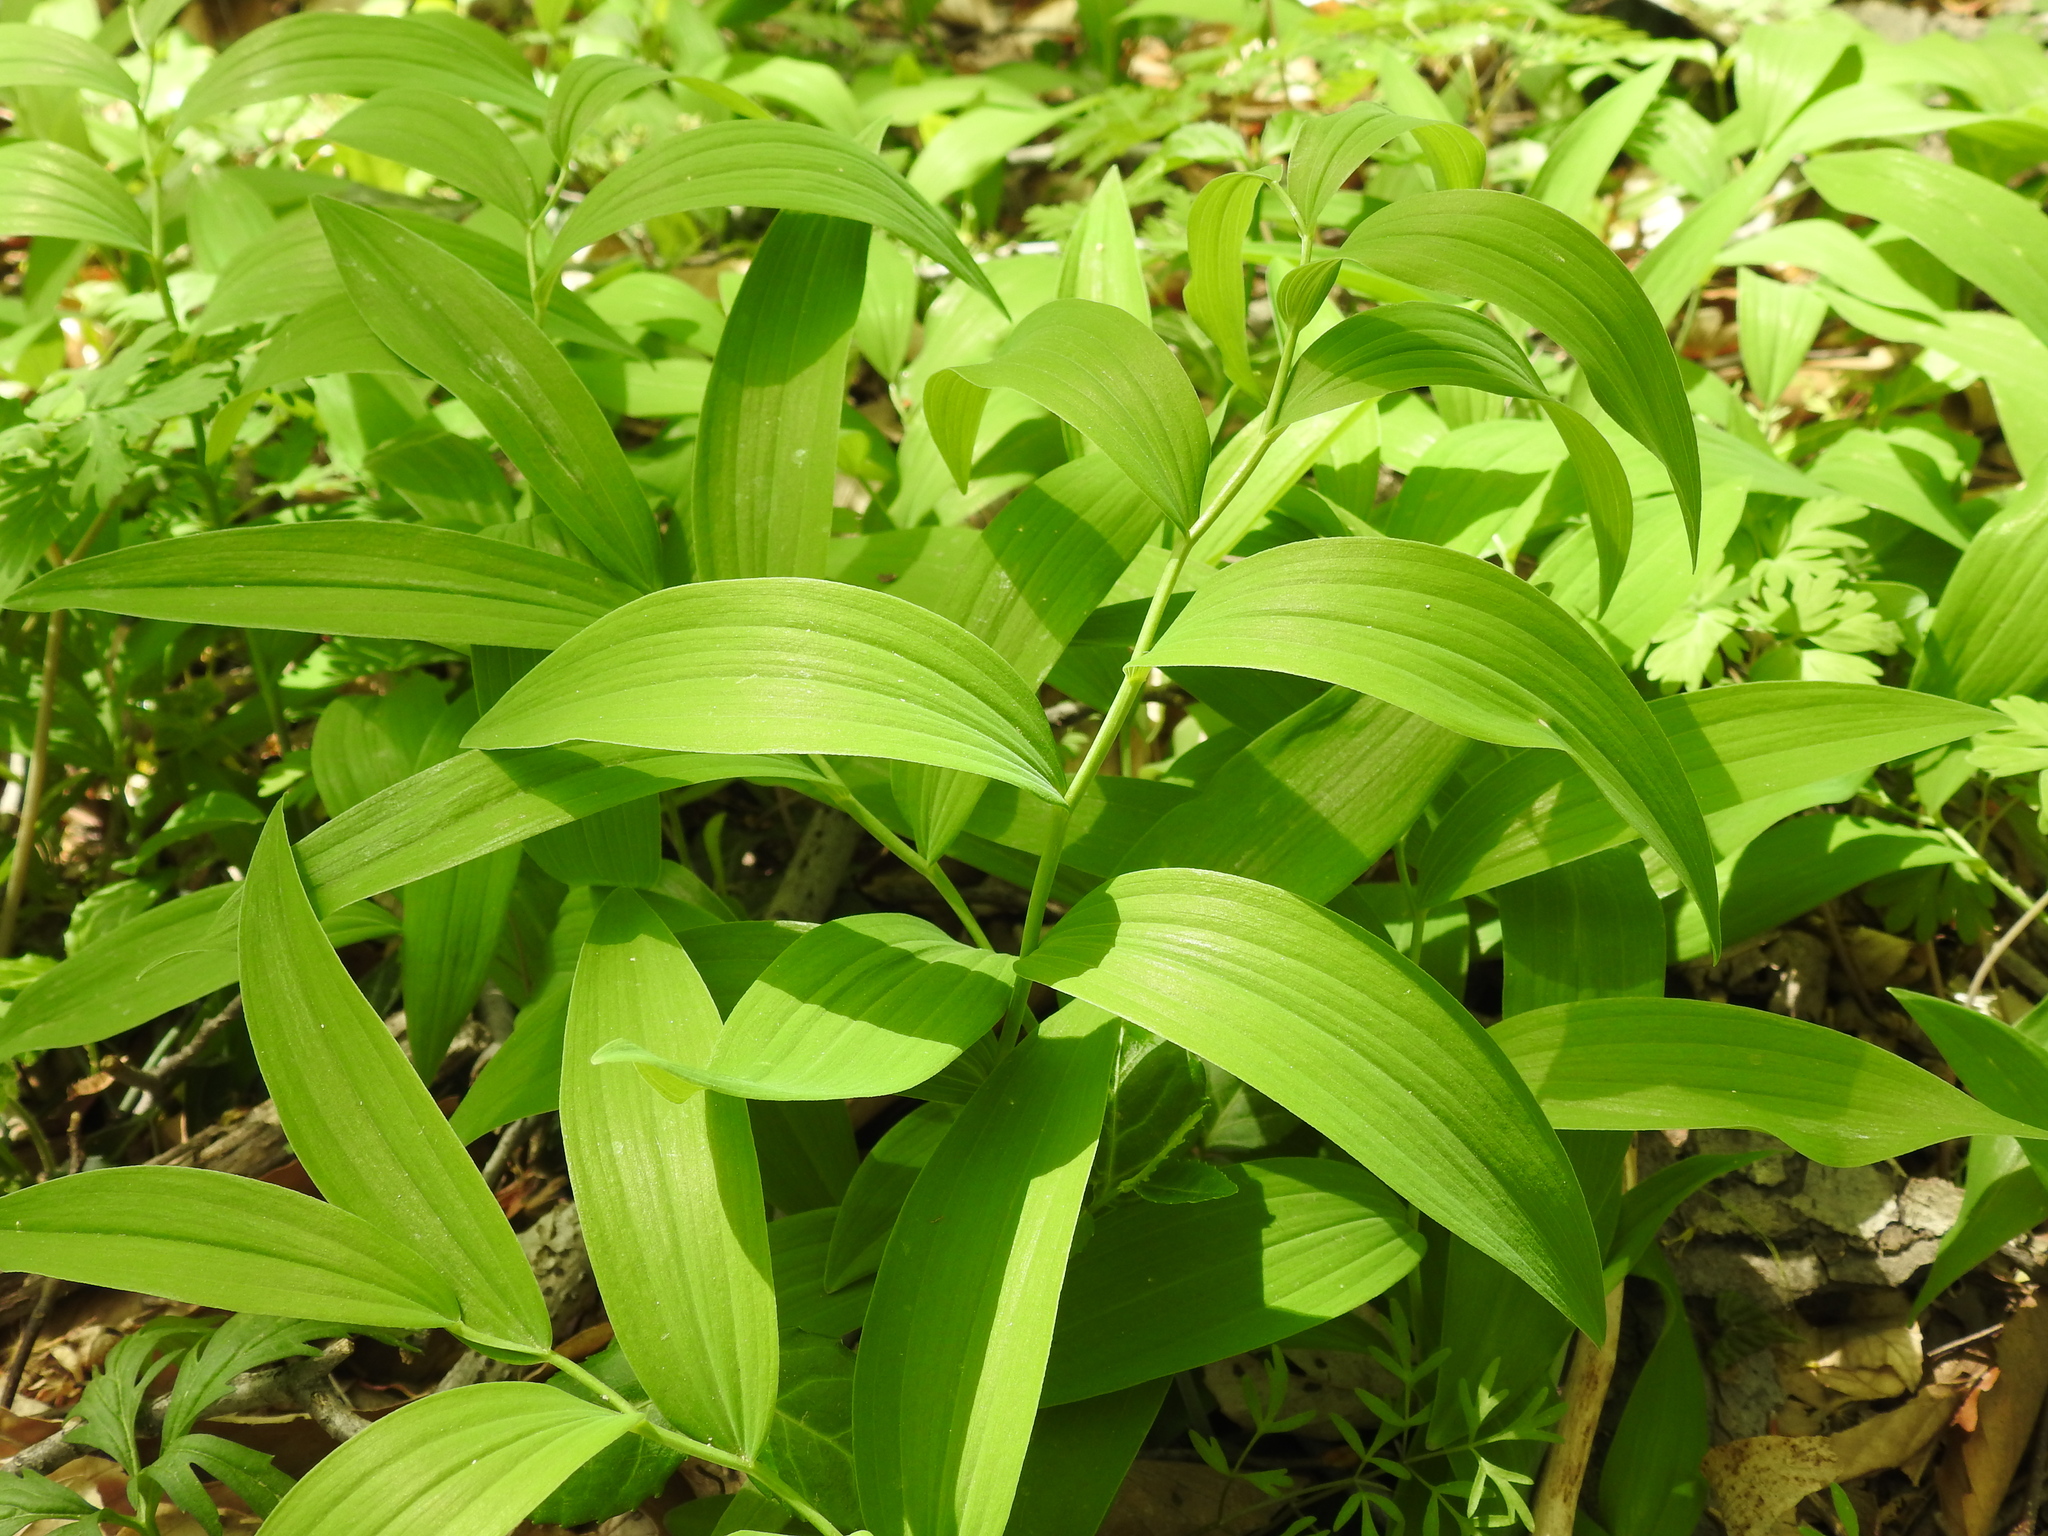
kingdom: Plantae
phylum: Tracheophyta
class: Liliopsida
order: Asparagales
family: Asparagaceae
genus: Polygonatum
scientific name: Polygonatum biflorum
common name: American solomon's-seal
